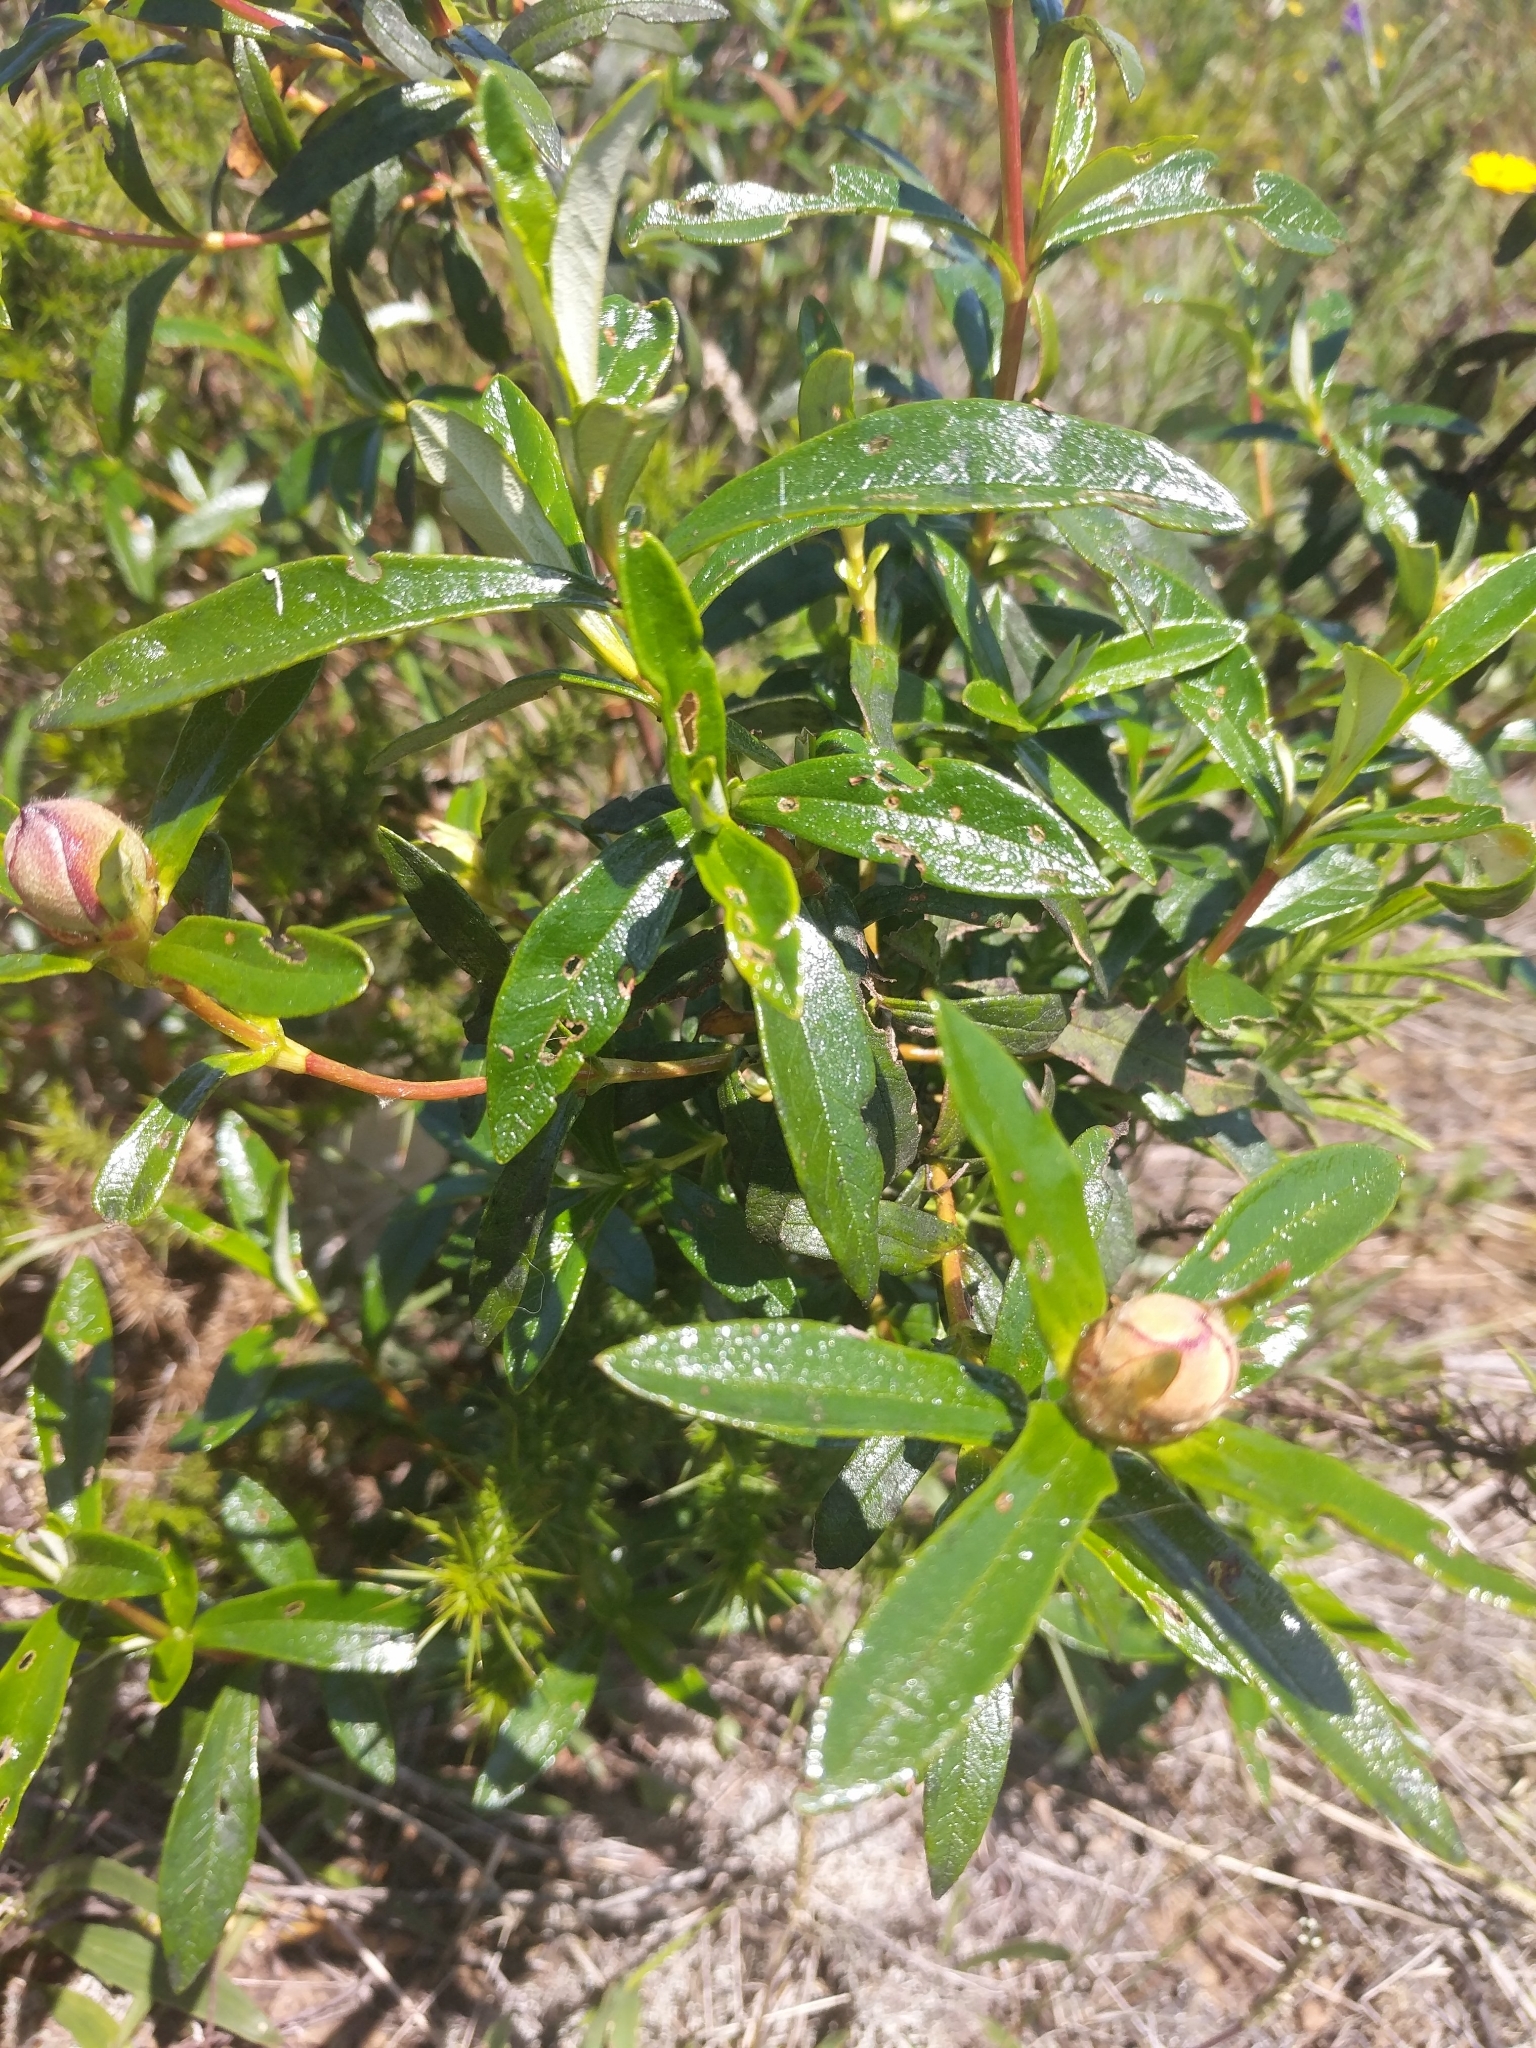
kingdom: Plantae
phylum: Tracheophyta
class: Magnoliopsida
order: Malvales
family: Cistaceae
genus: Cistus
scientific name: Cistus ladanifer
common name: Common gum cistus
